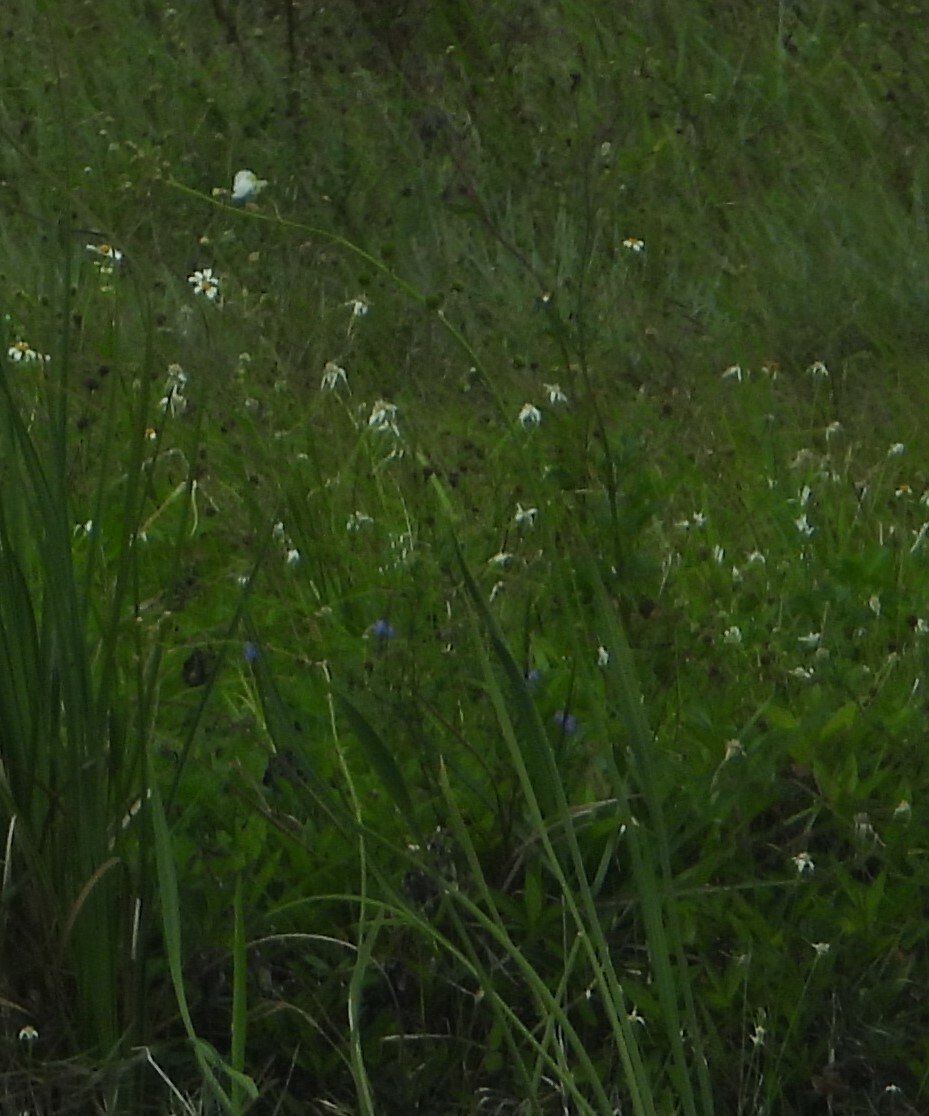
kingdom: Plantae
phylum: Tracheophyta
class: Liliopsida
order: Alismatales
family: Alismataceae
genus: Sagittaria
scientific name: Sagittaria lancifolia
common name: Lance-leaf arrowhead
